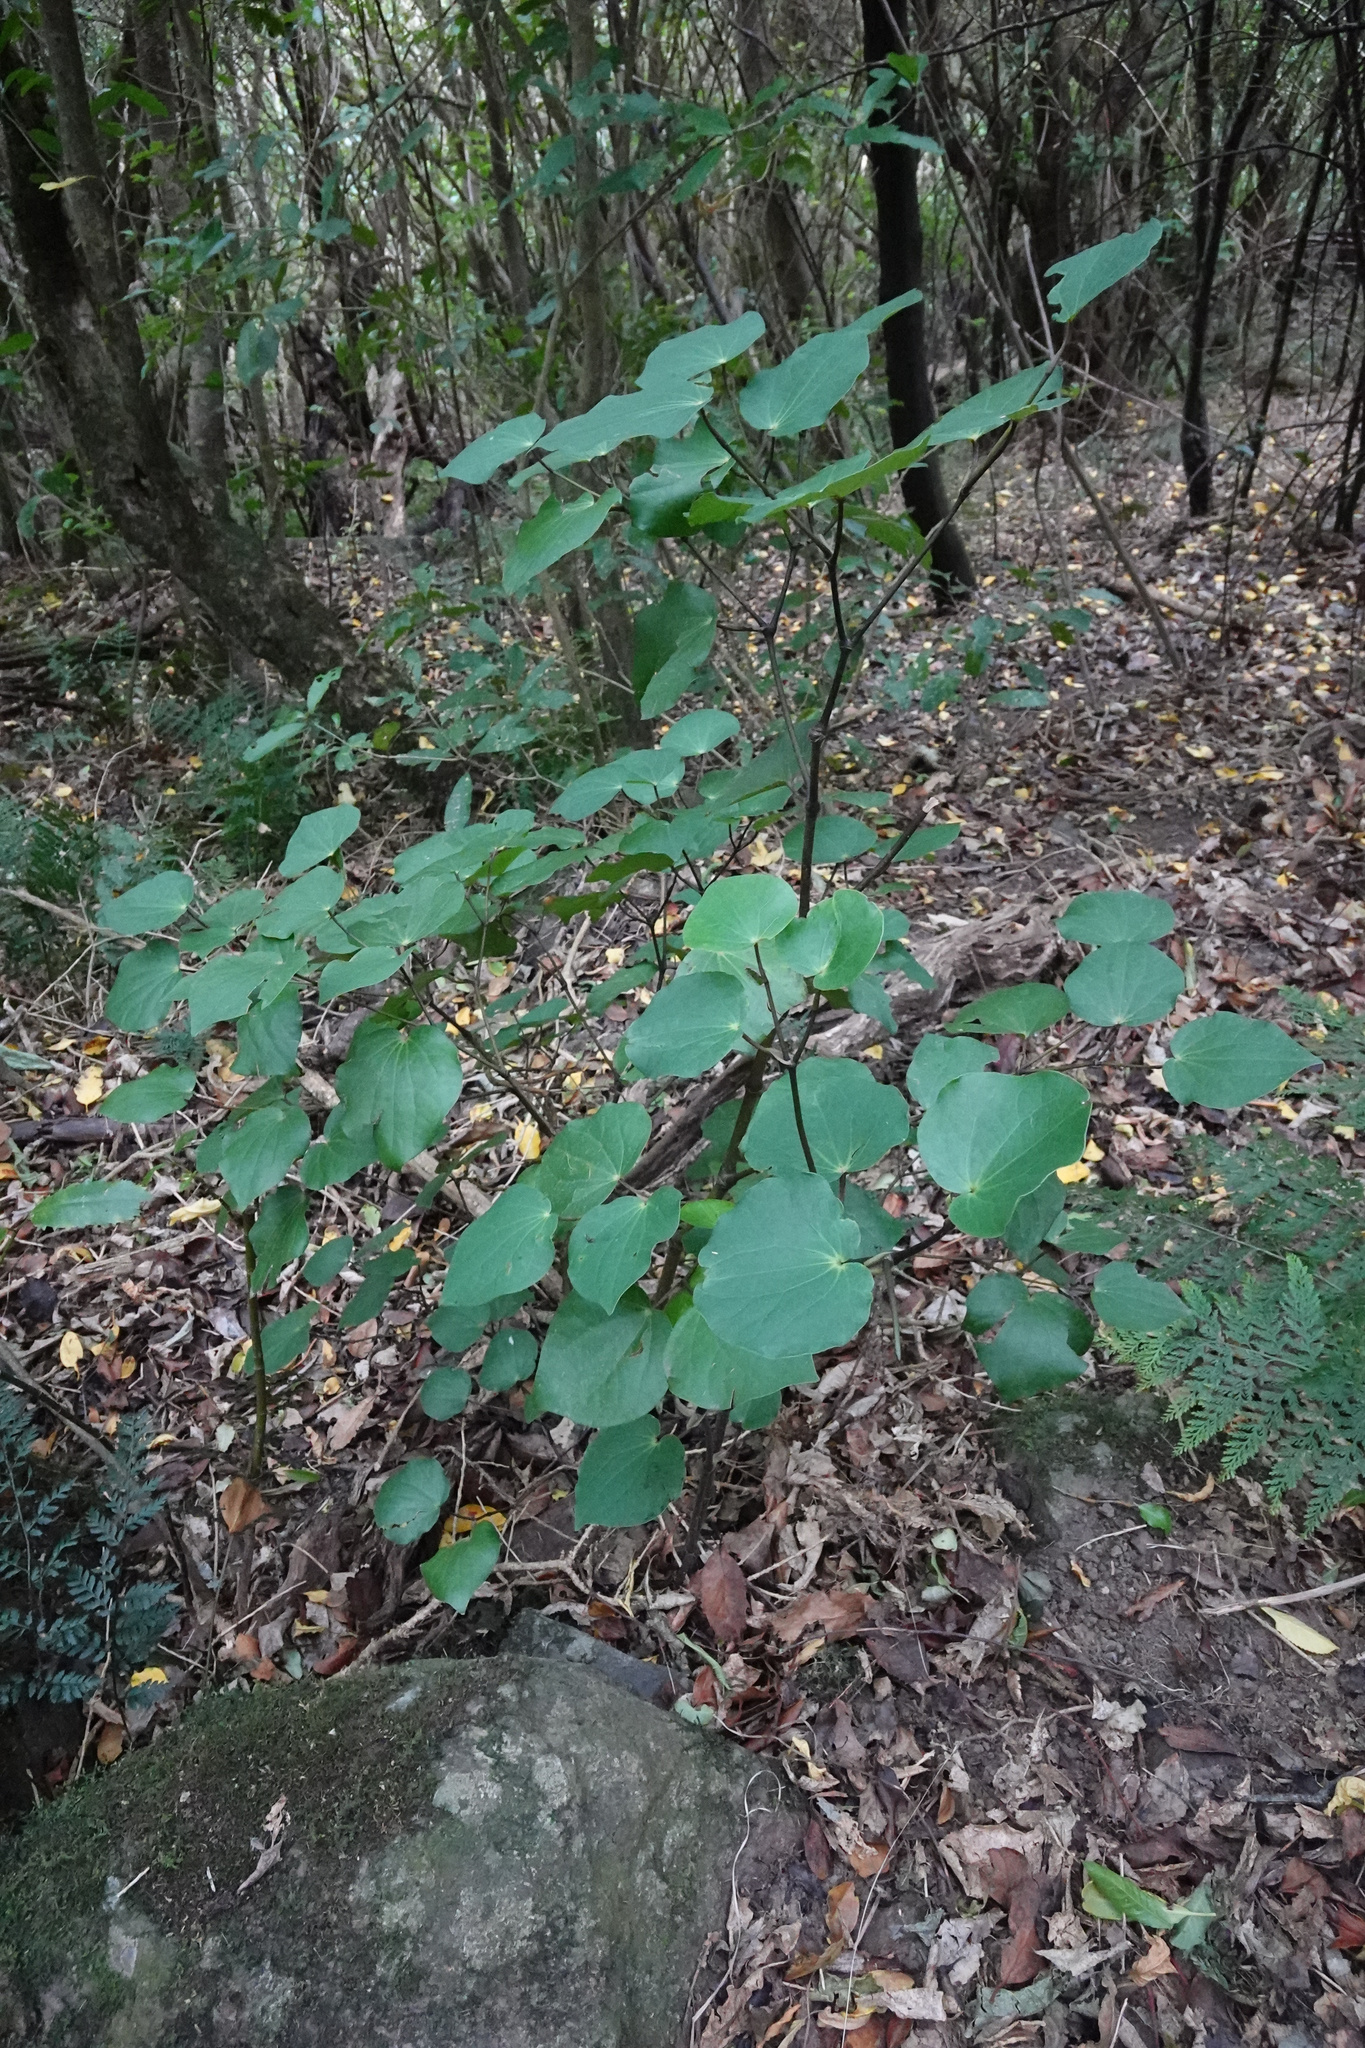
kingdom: Plantae
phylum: Tracheophyta
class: Magnoliopsida
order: Piperales
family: Piperaceae
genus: Macropiper
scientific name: Macropiper excelsum
